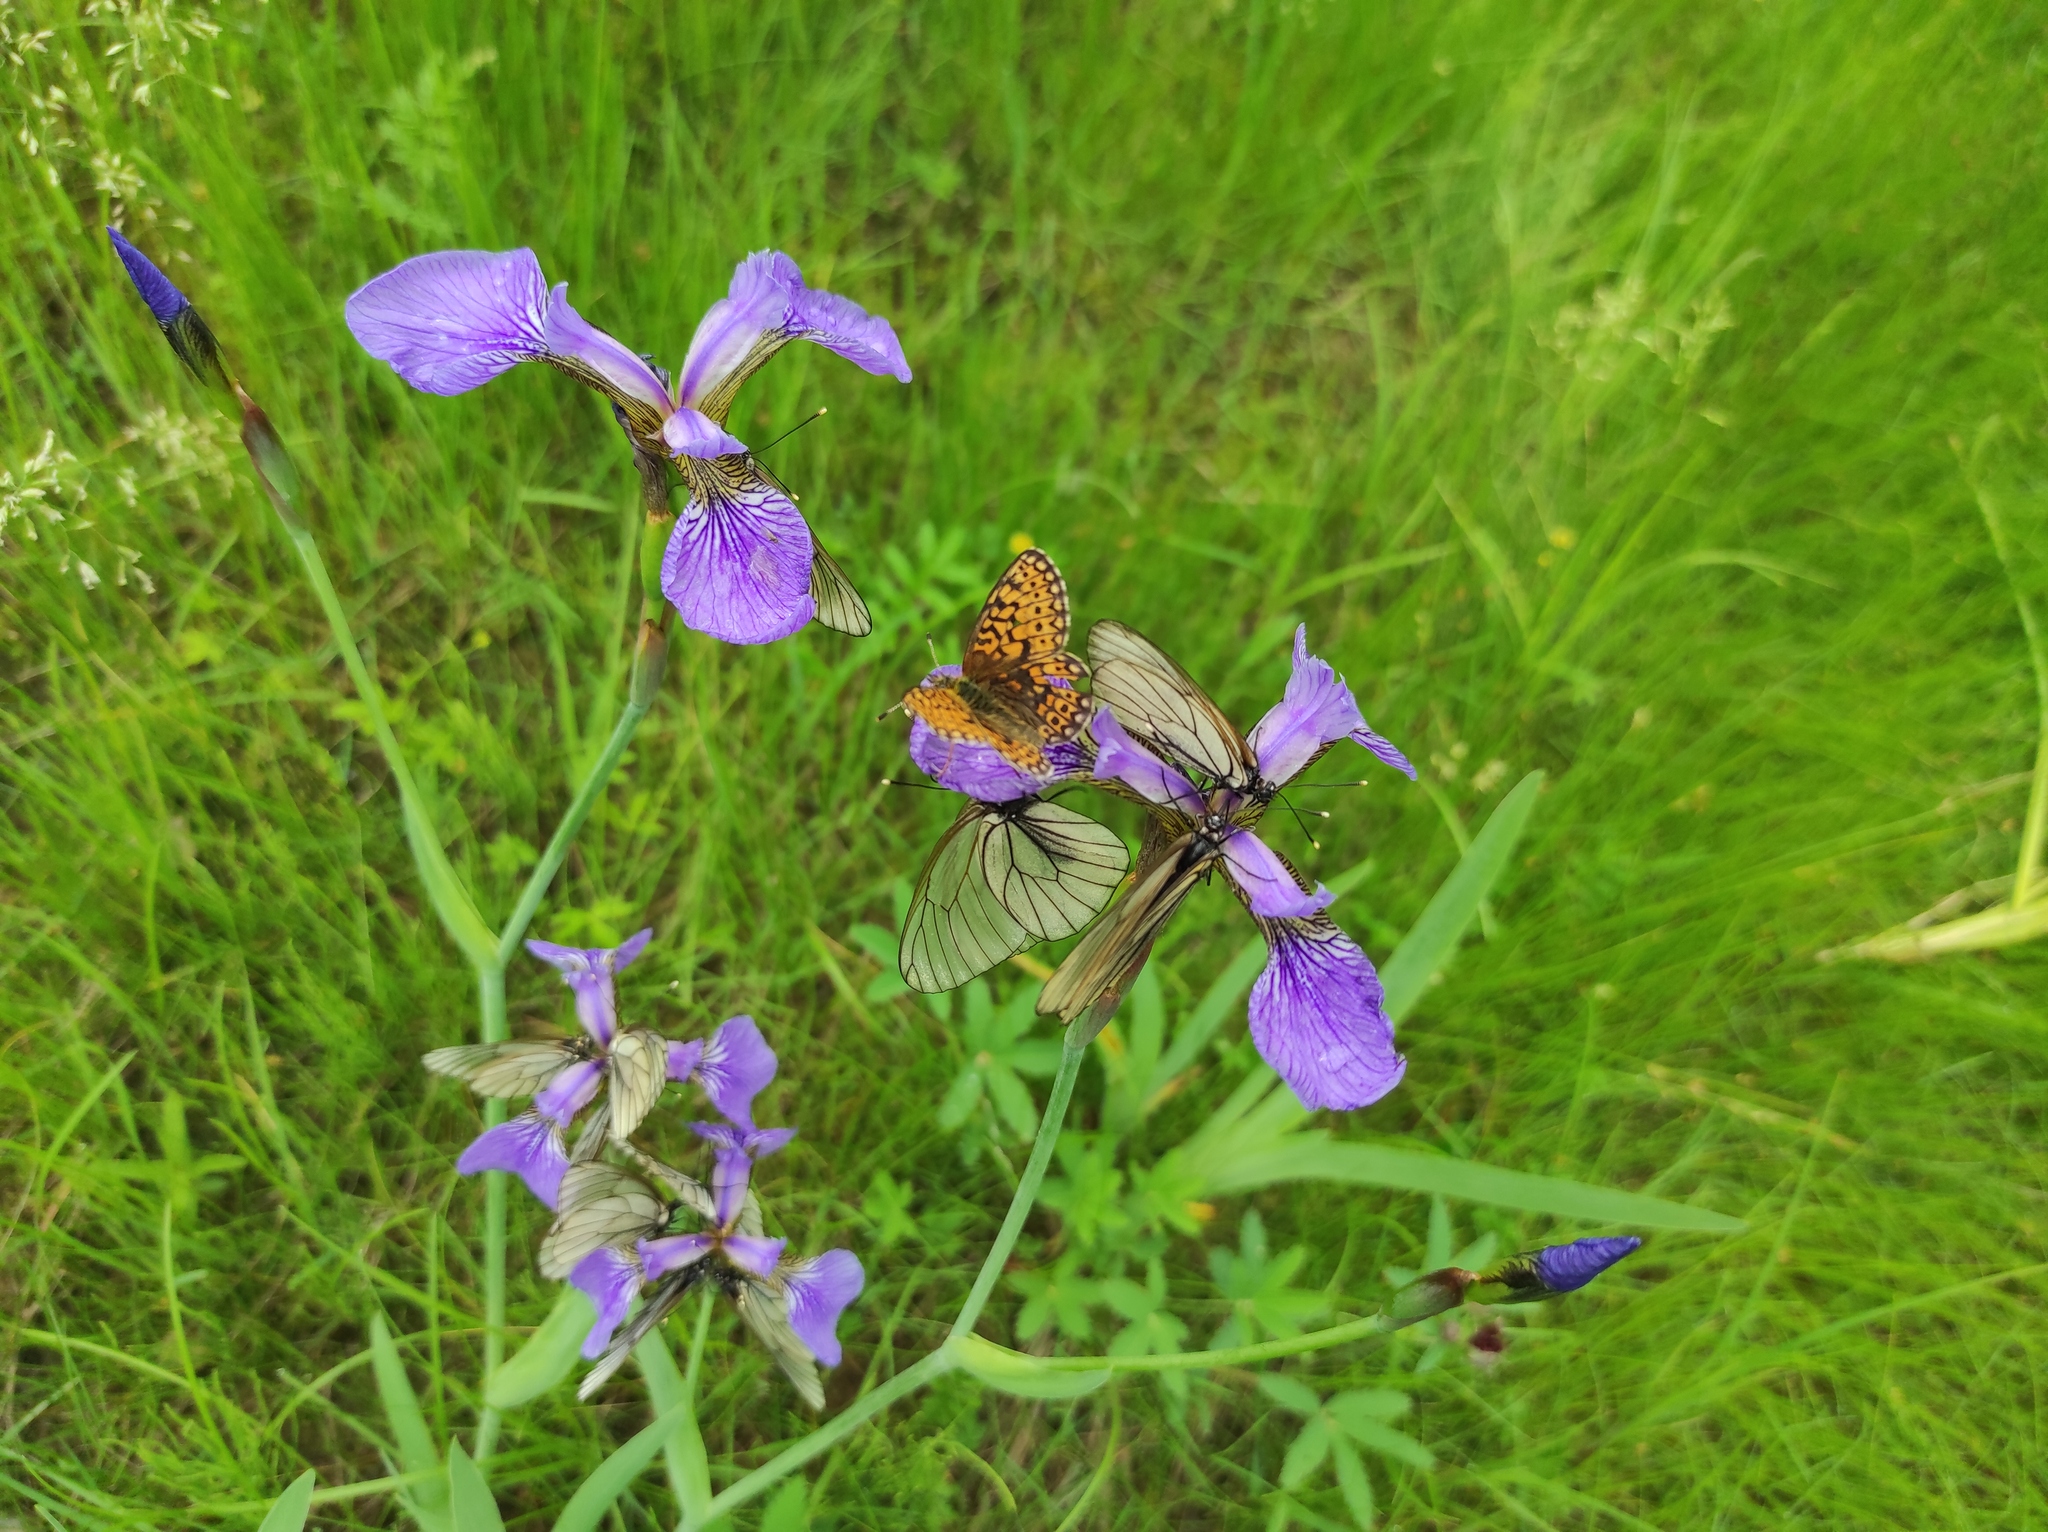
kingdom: Animalia
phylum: Arthropoda
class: Insecta
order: Lepidoptera
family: Pieridae
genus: Aporia
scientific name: Aporia crataegi
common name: Black-veined white
